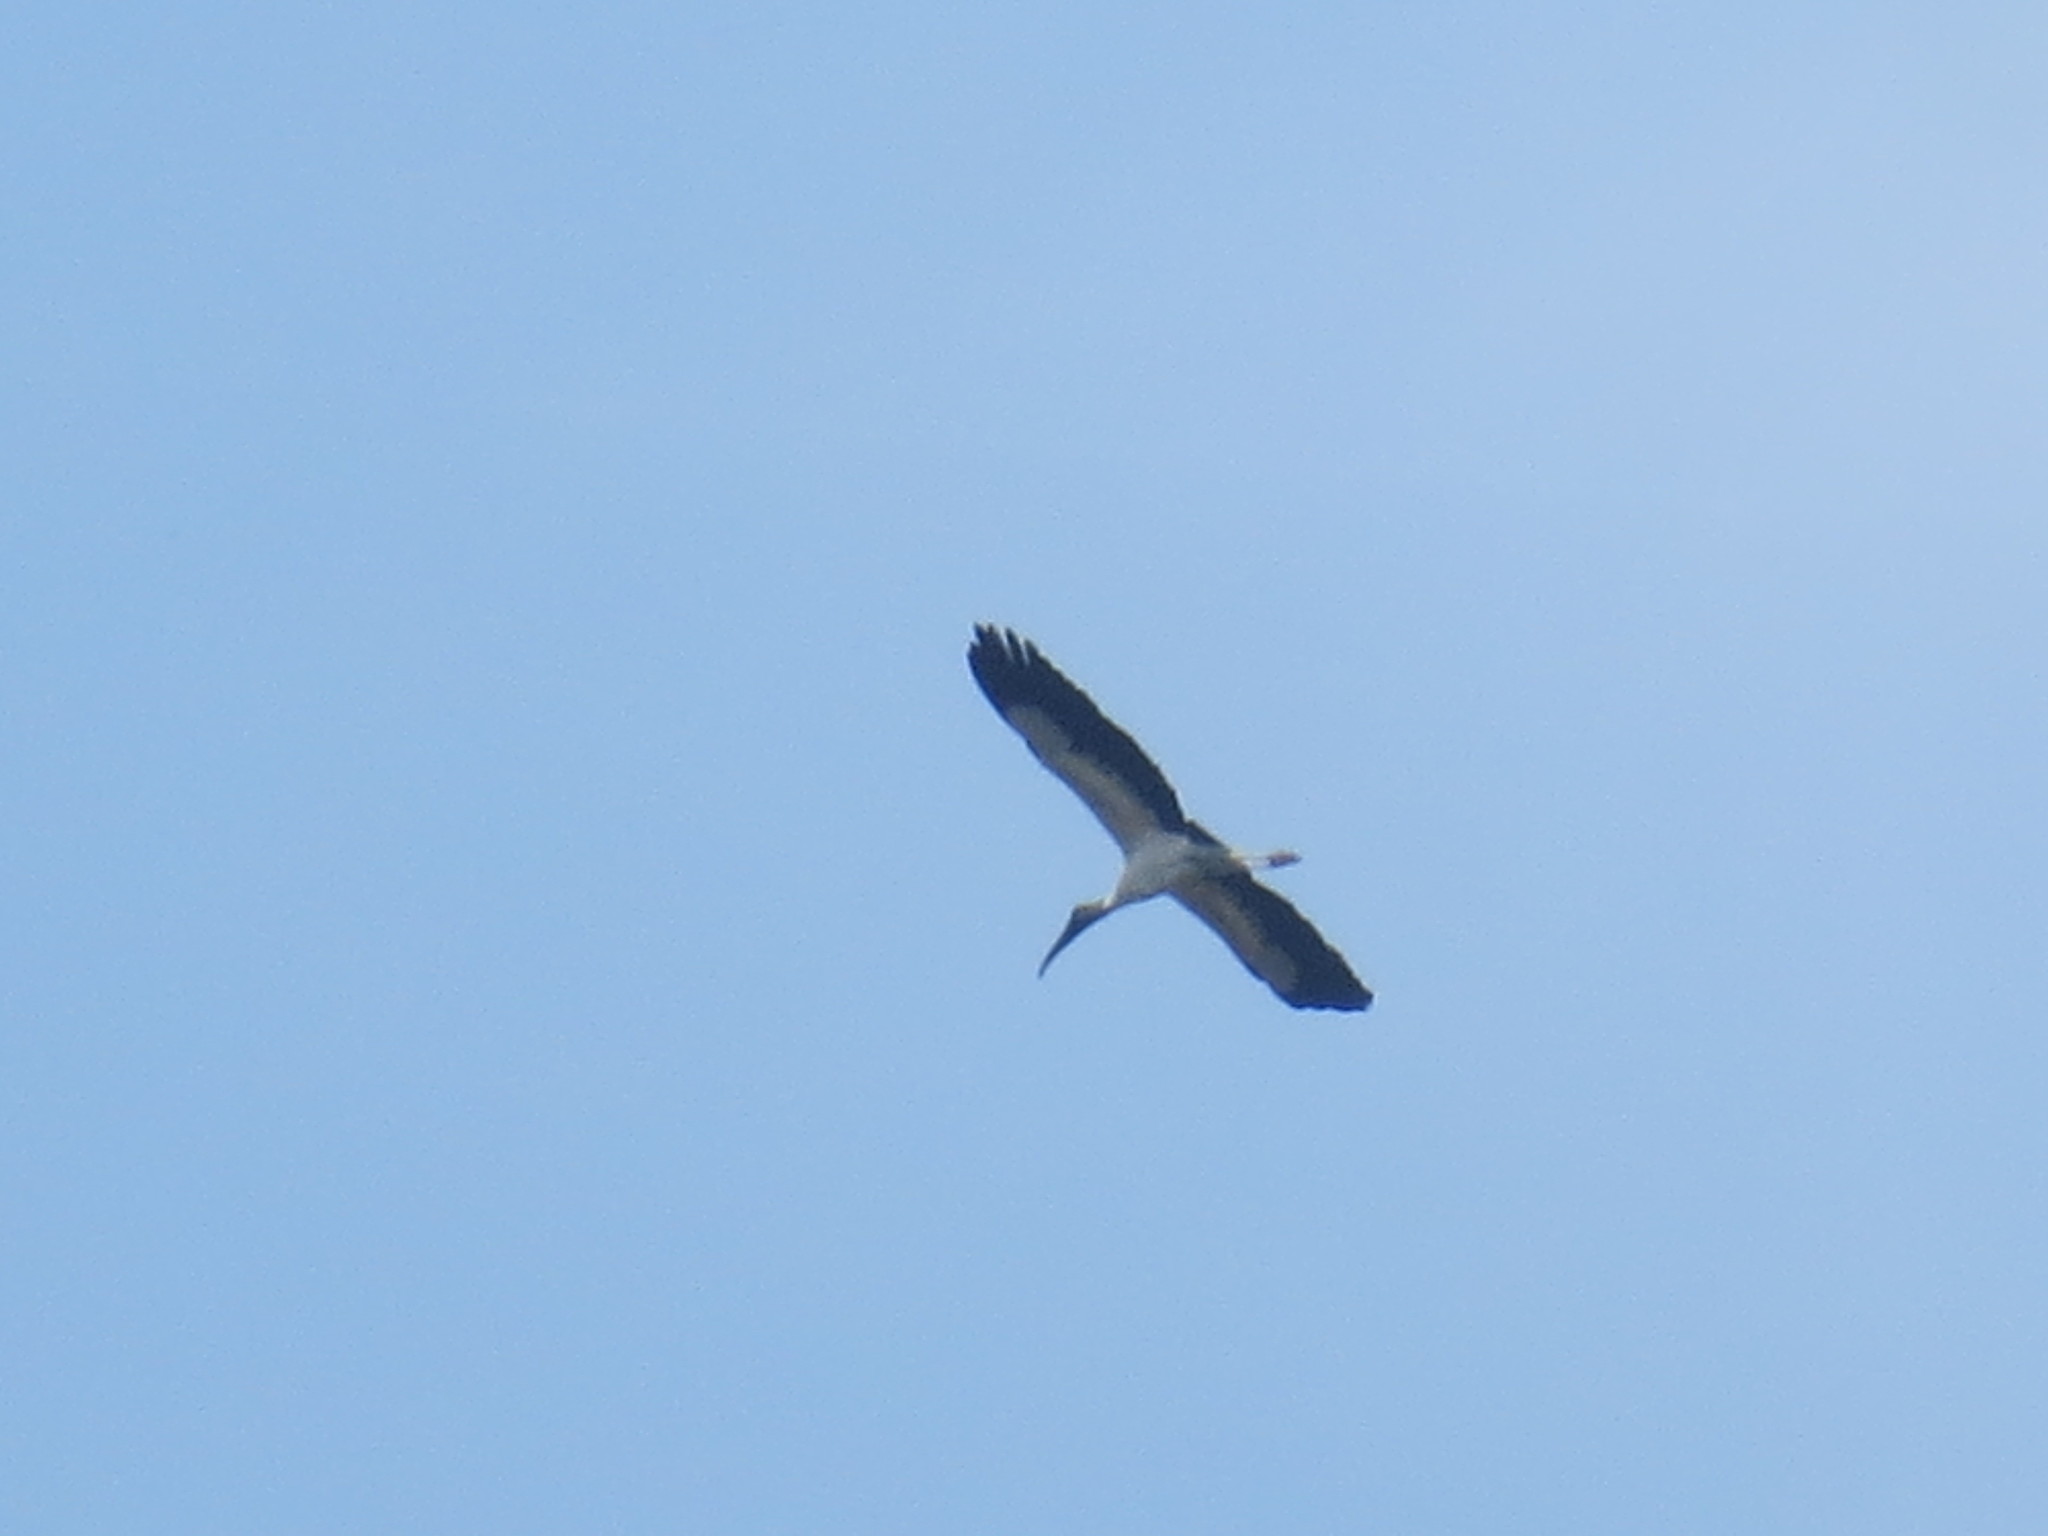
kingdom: Animalia
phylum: Chordata
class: Aves
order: Ciconiiformes
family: Ciconiidae
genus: Mycteria
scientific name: Mycteria americana
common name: Wood stork
